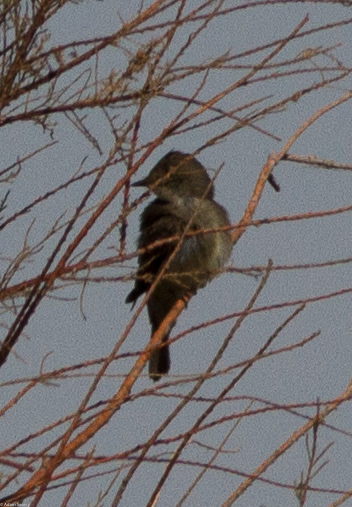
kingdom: Animalia
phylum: Chordata
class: Aves
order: Passeriformes
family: Tyrannidae
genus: Contopus
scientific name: Contopus sordidulus
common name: Western wood-pewee
